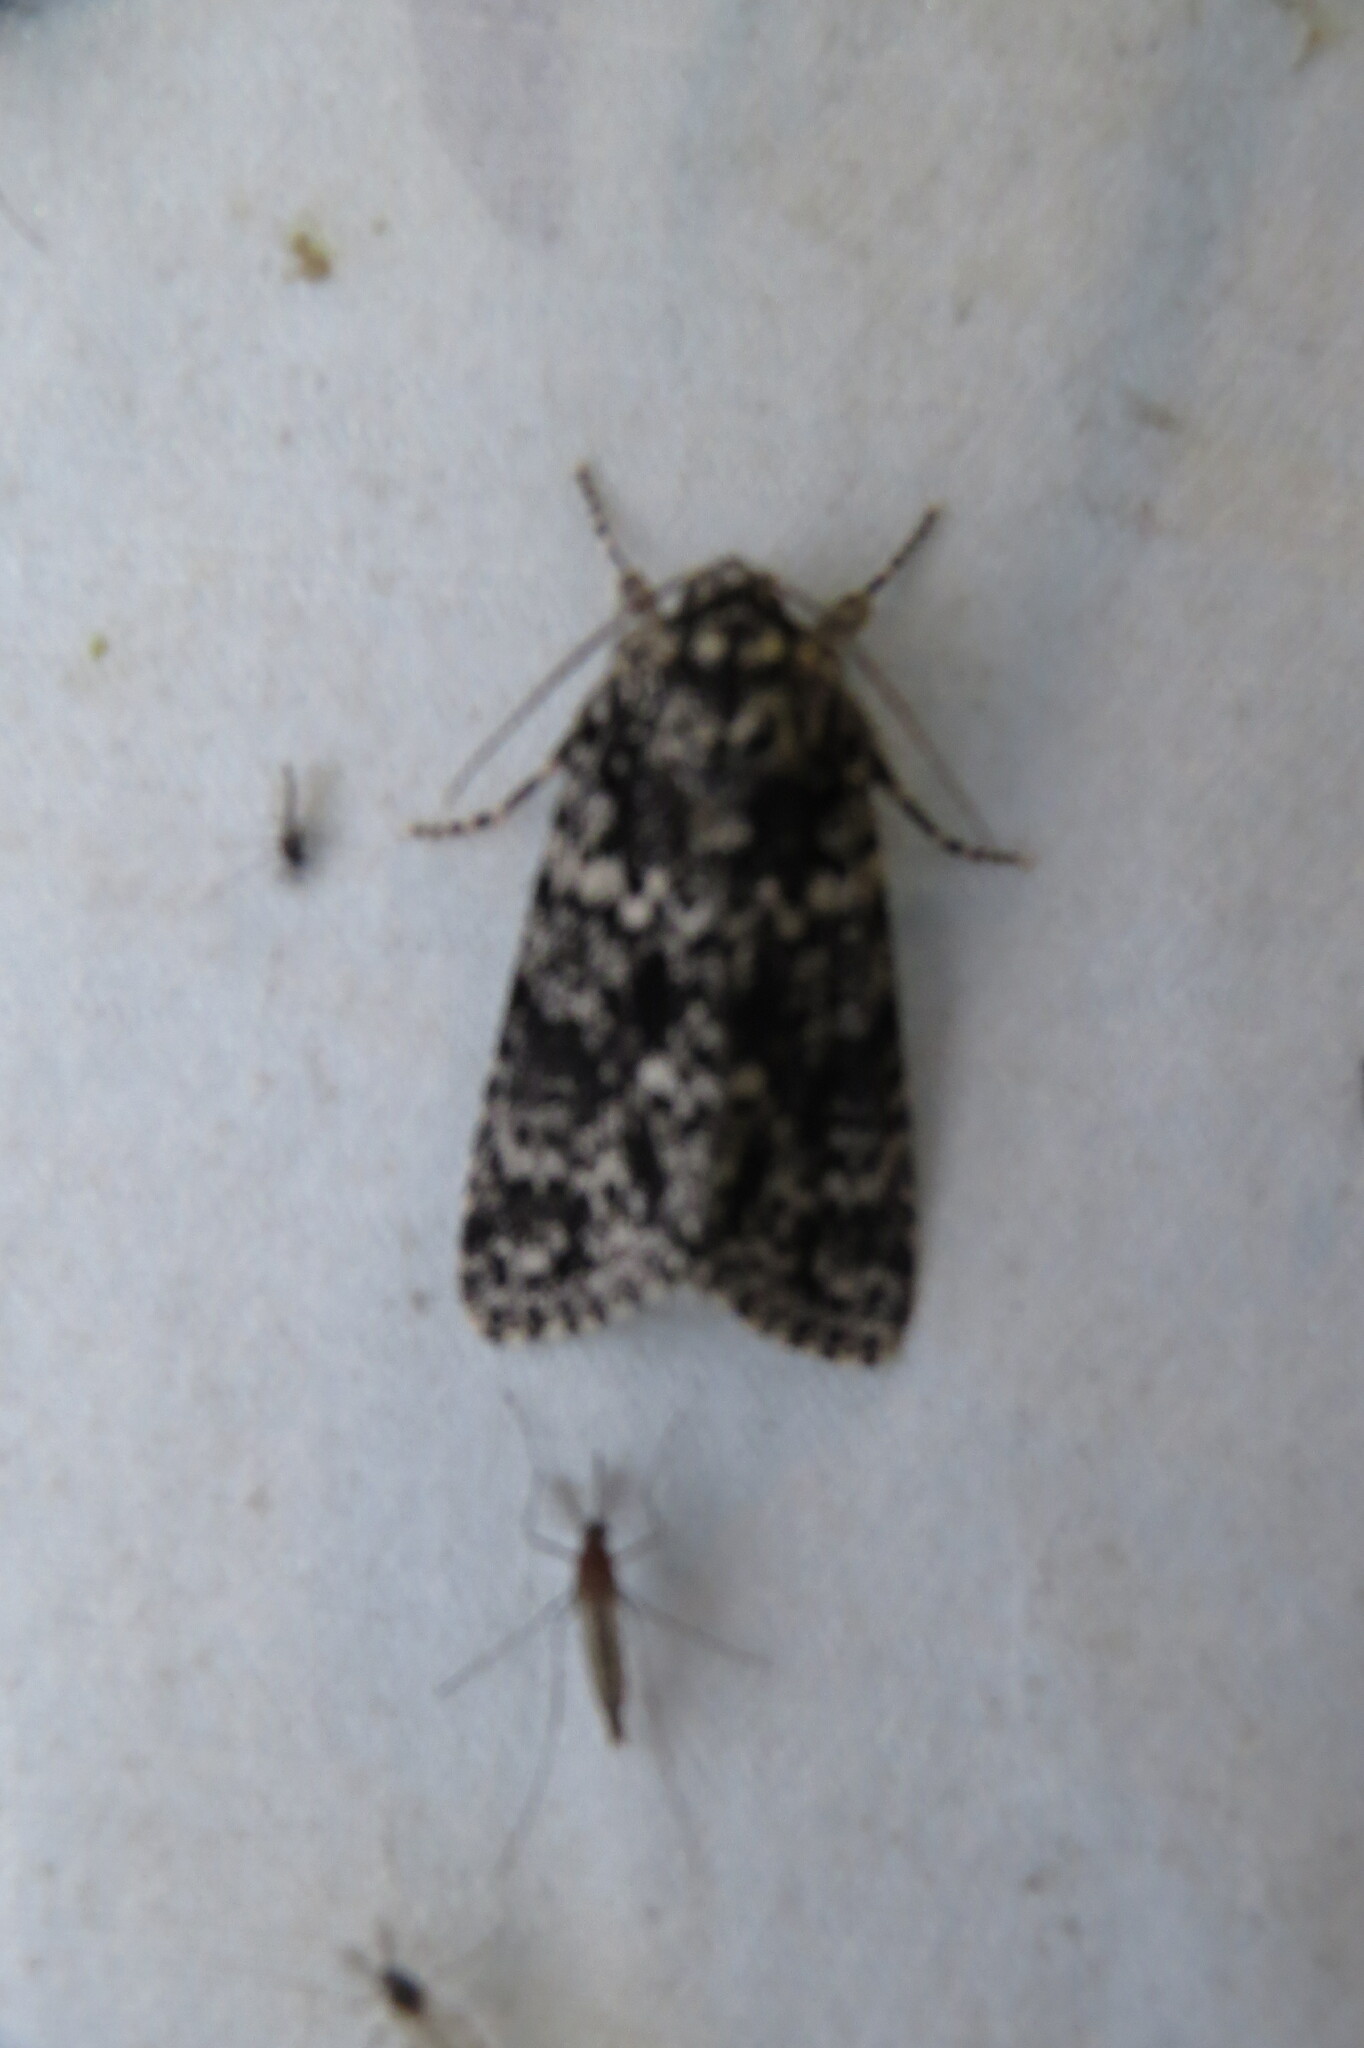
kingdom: Animalia
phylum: Arthropoda
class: Insecta
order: Lepidoptera
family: Noctuidae
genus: Acronicta
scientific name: Acronicta noctivaga
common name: Night-wandering dagger
